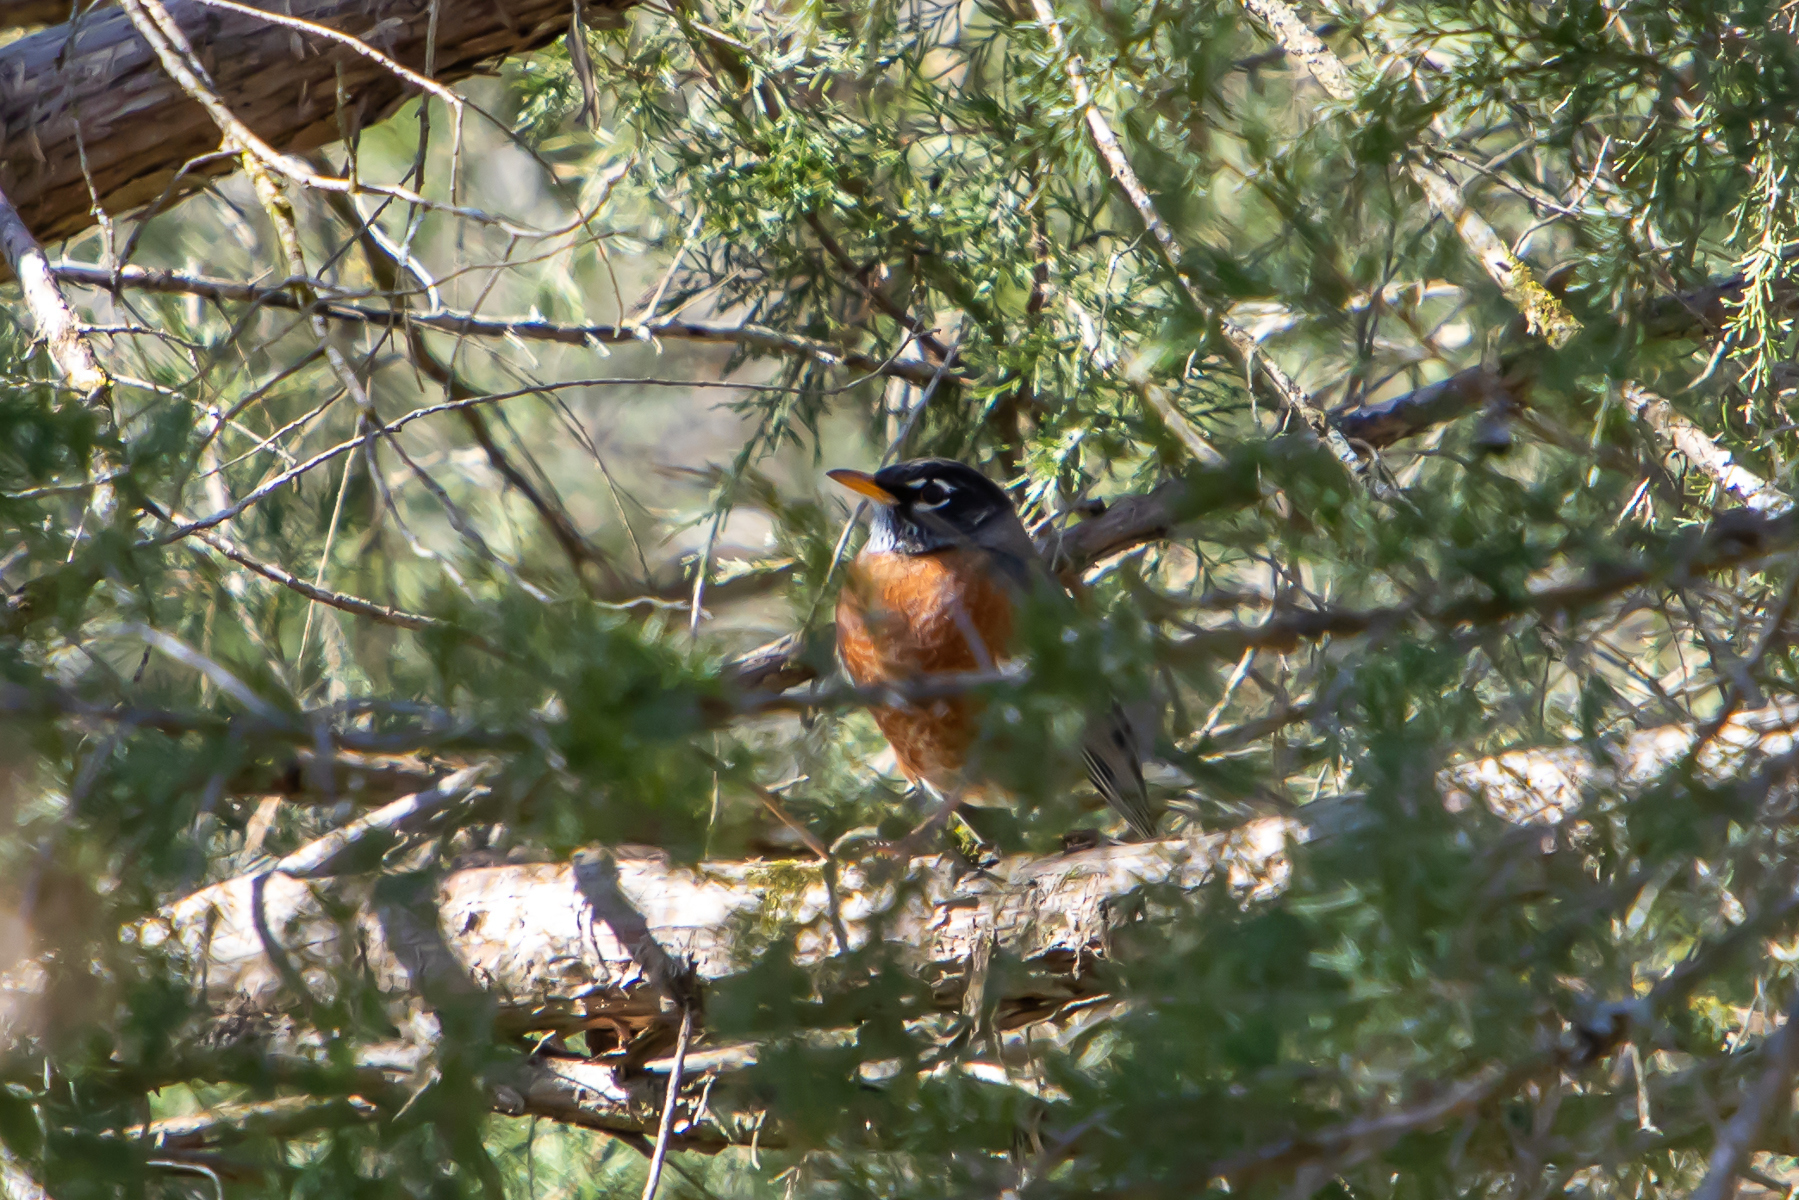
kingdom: Animalia
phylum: Chordata
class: Aves
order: Passeriformes
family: Turdidae
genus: Turdus
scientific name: Turdus migratorius
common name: American robin
